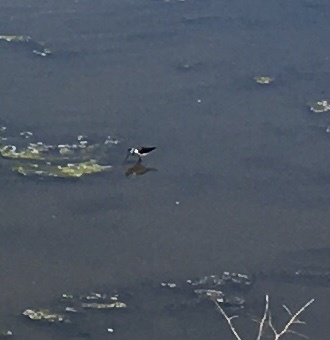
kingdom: Animalia
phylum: Chordata
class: Aves
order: Charadriiformes
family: Recurvirostridae
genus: Himantopus
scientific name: Himantopus mexicanus
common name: Black-necked stilt
